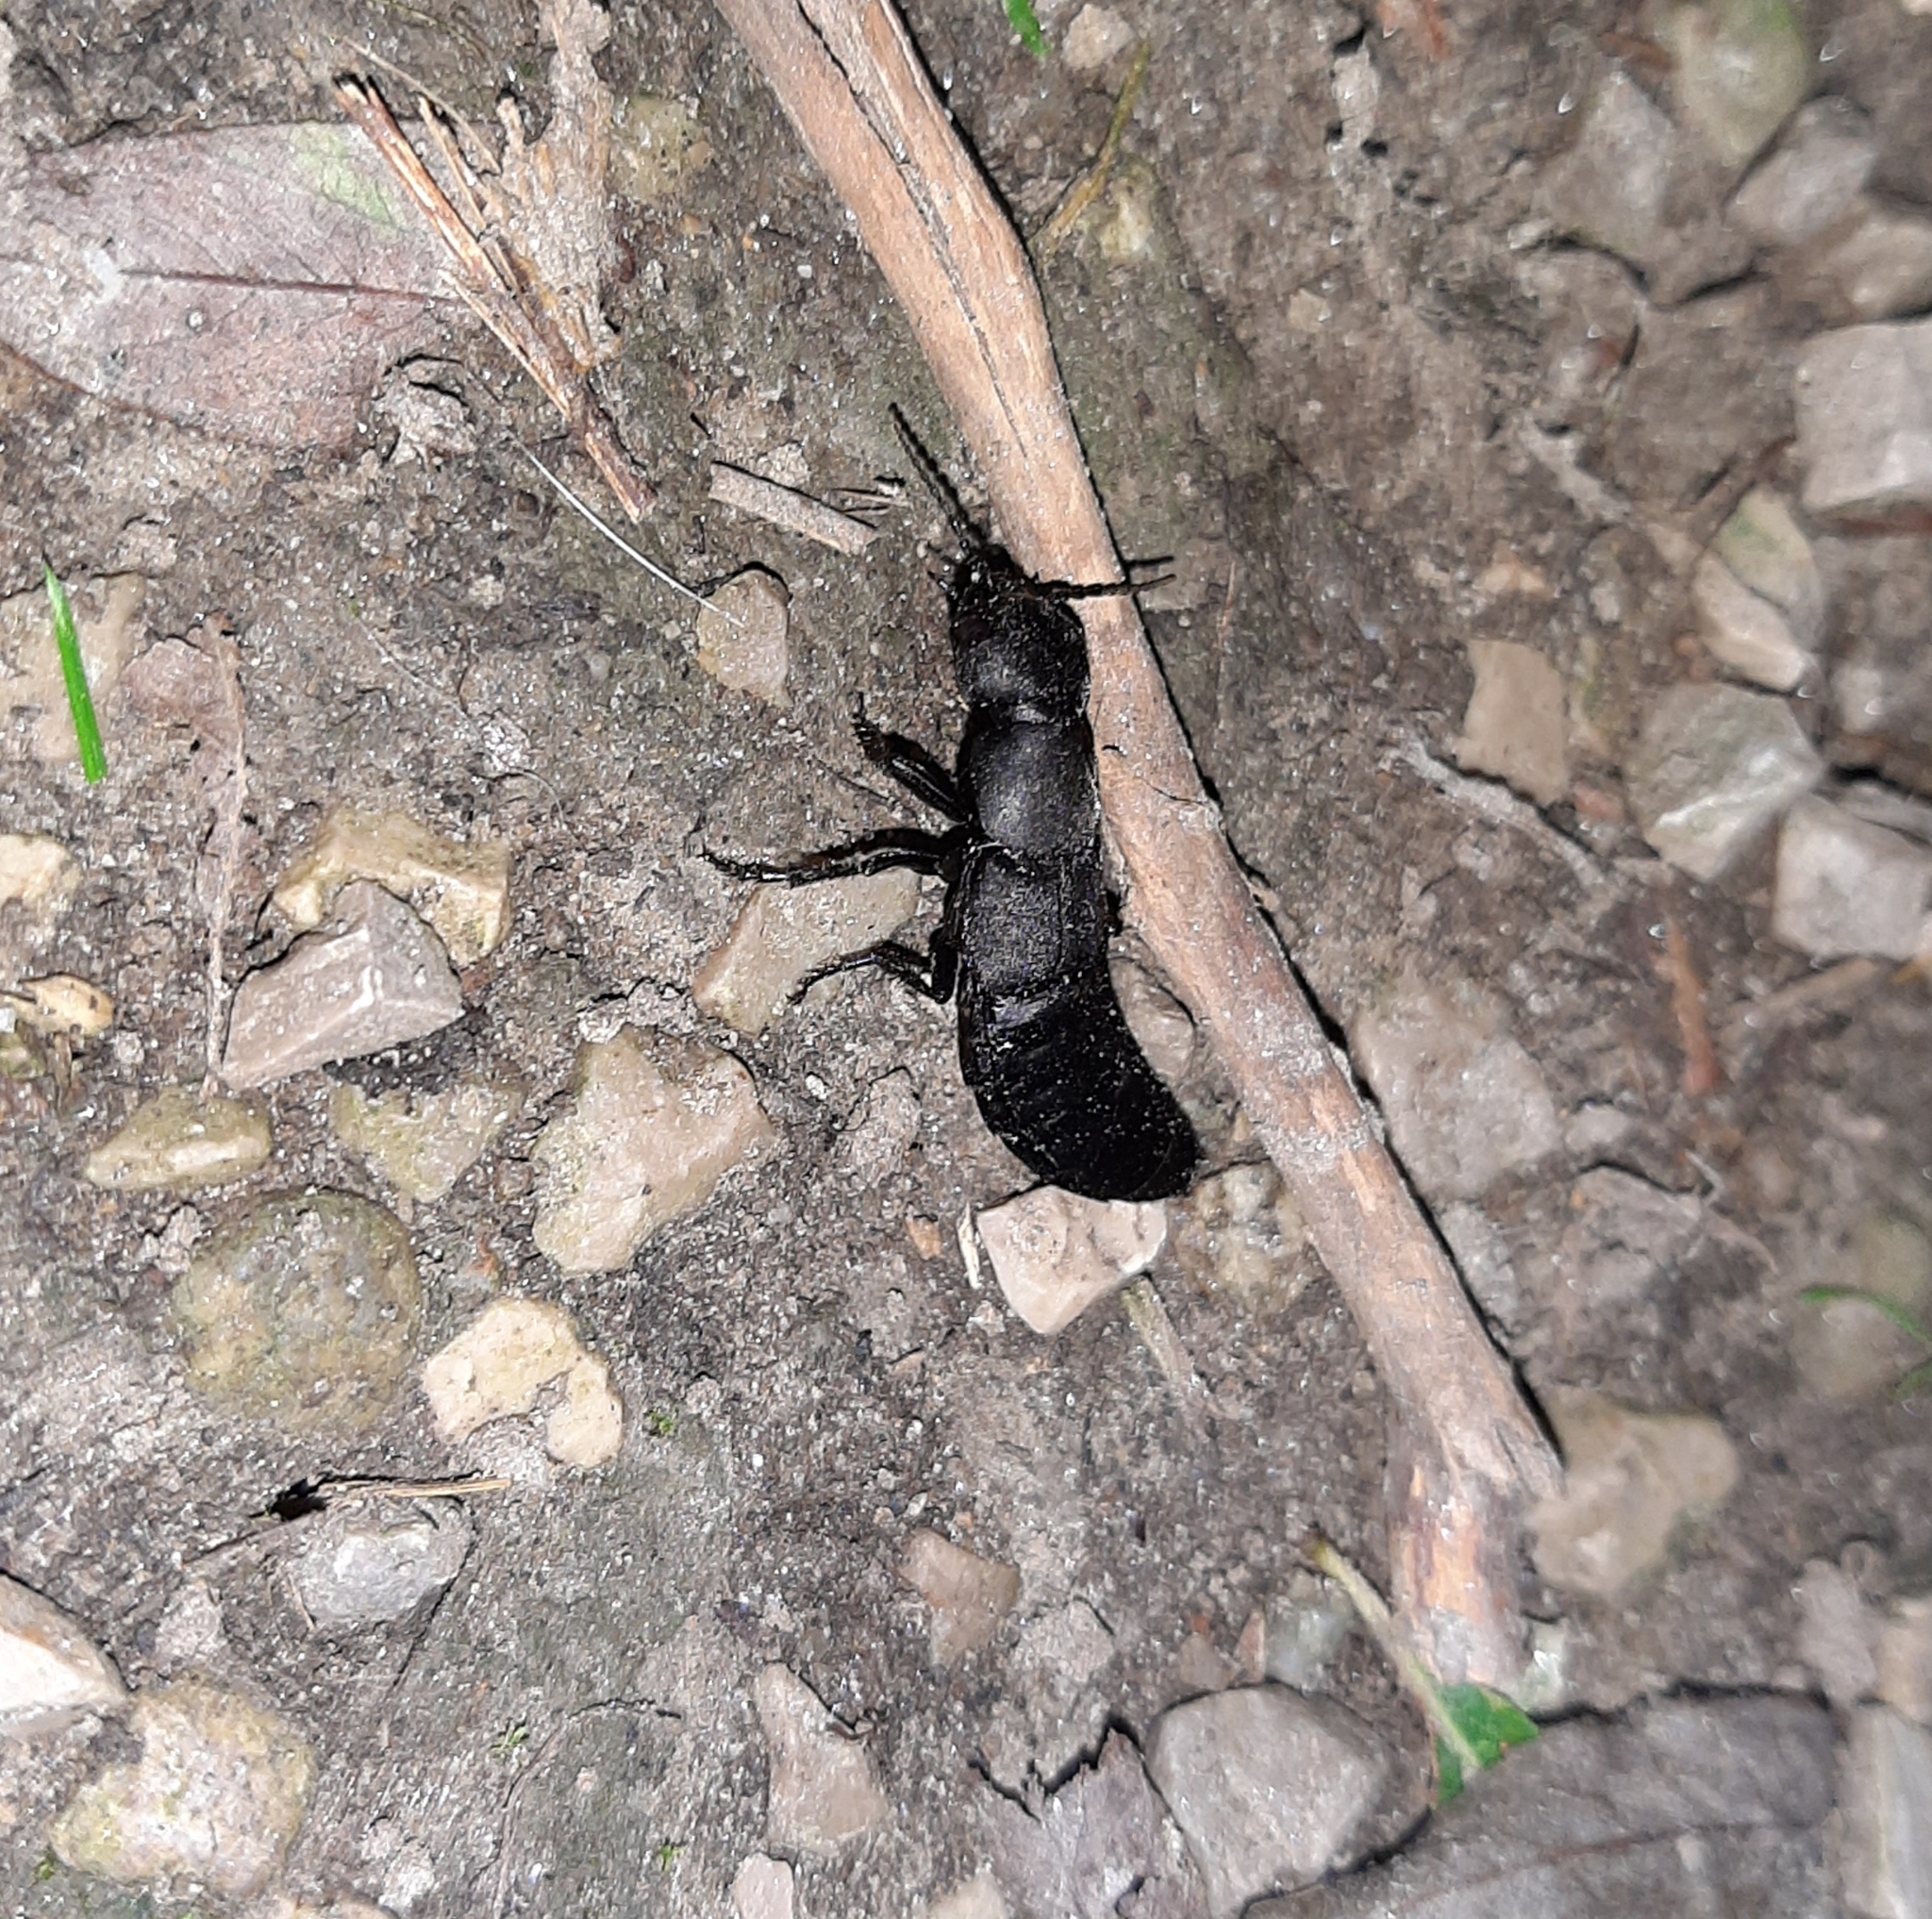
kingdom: Animalia
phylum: Arthropoda
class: Insecta
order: Coleoptera
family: Staphylinidae
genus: Ocypus
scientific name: Ocypus olens
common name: Devil's coach-horse
